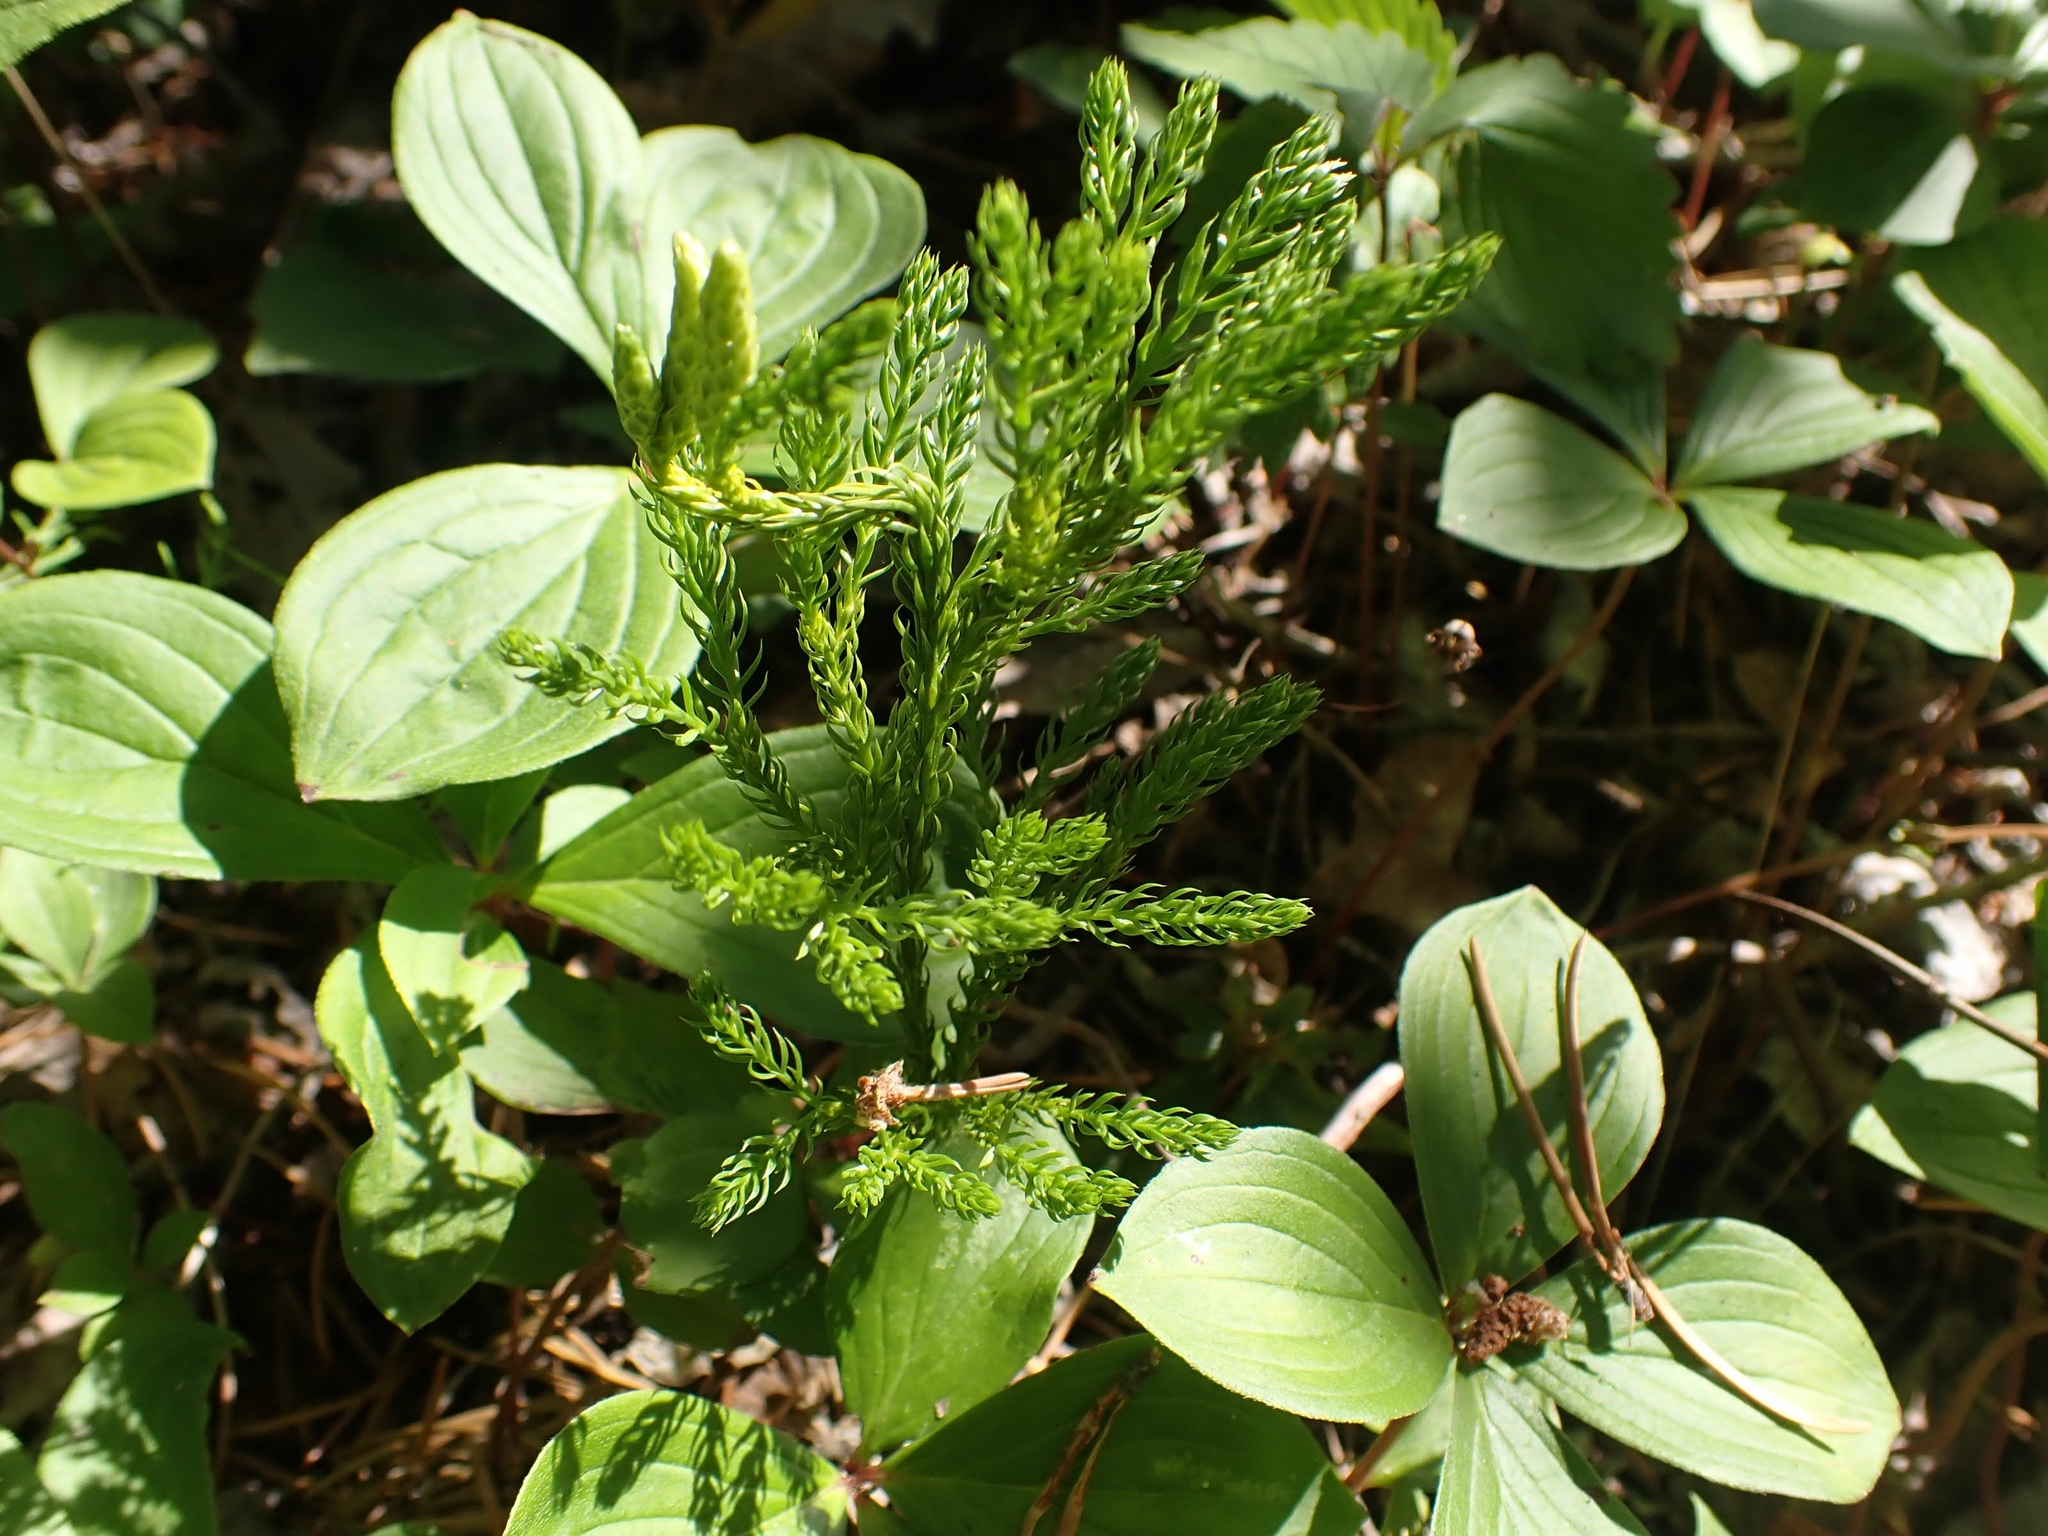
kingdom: Plantae
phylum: Tracheophyta
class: Lycopodiopsida
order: Lycopodiales
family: Lycopodiaceae
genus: Dendrolycopodium
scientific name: Dendrolycopodium dendroideum
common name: Northern tree-clubmoss
